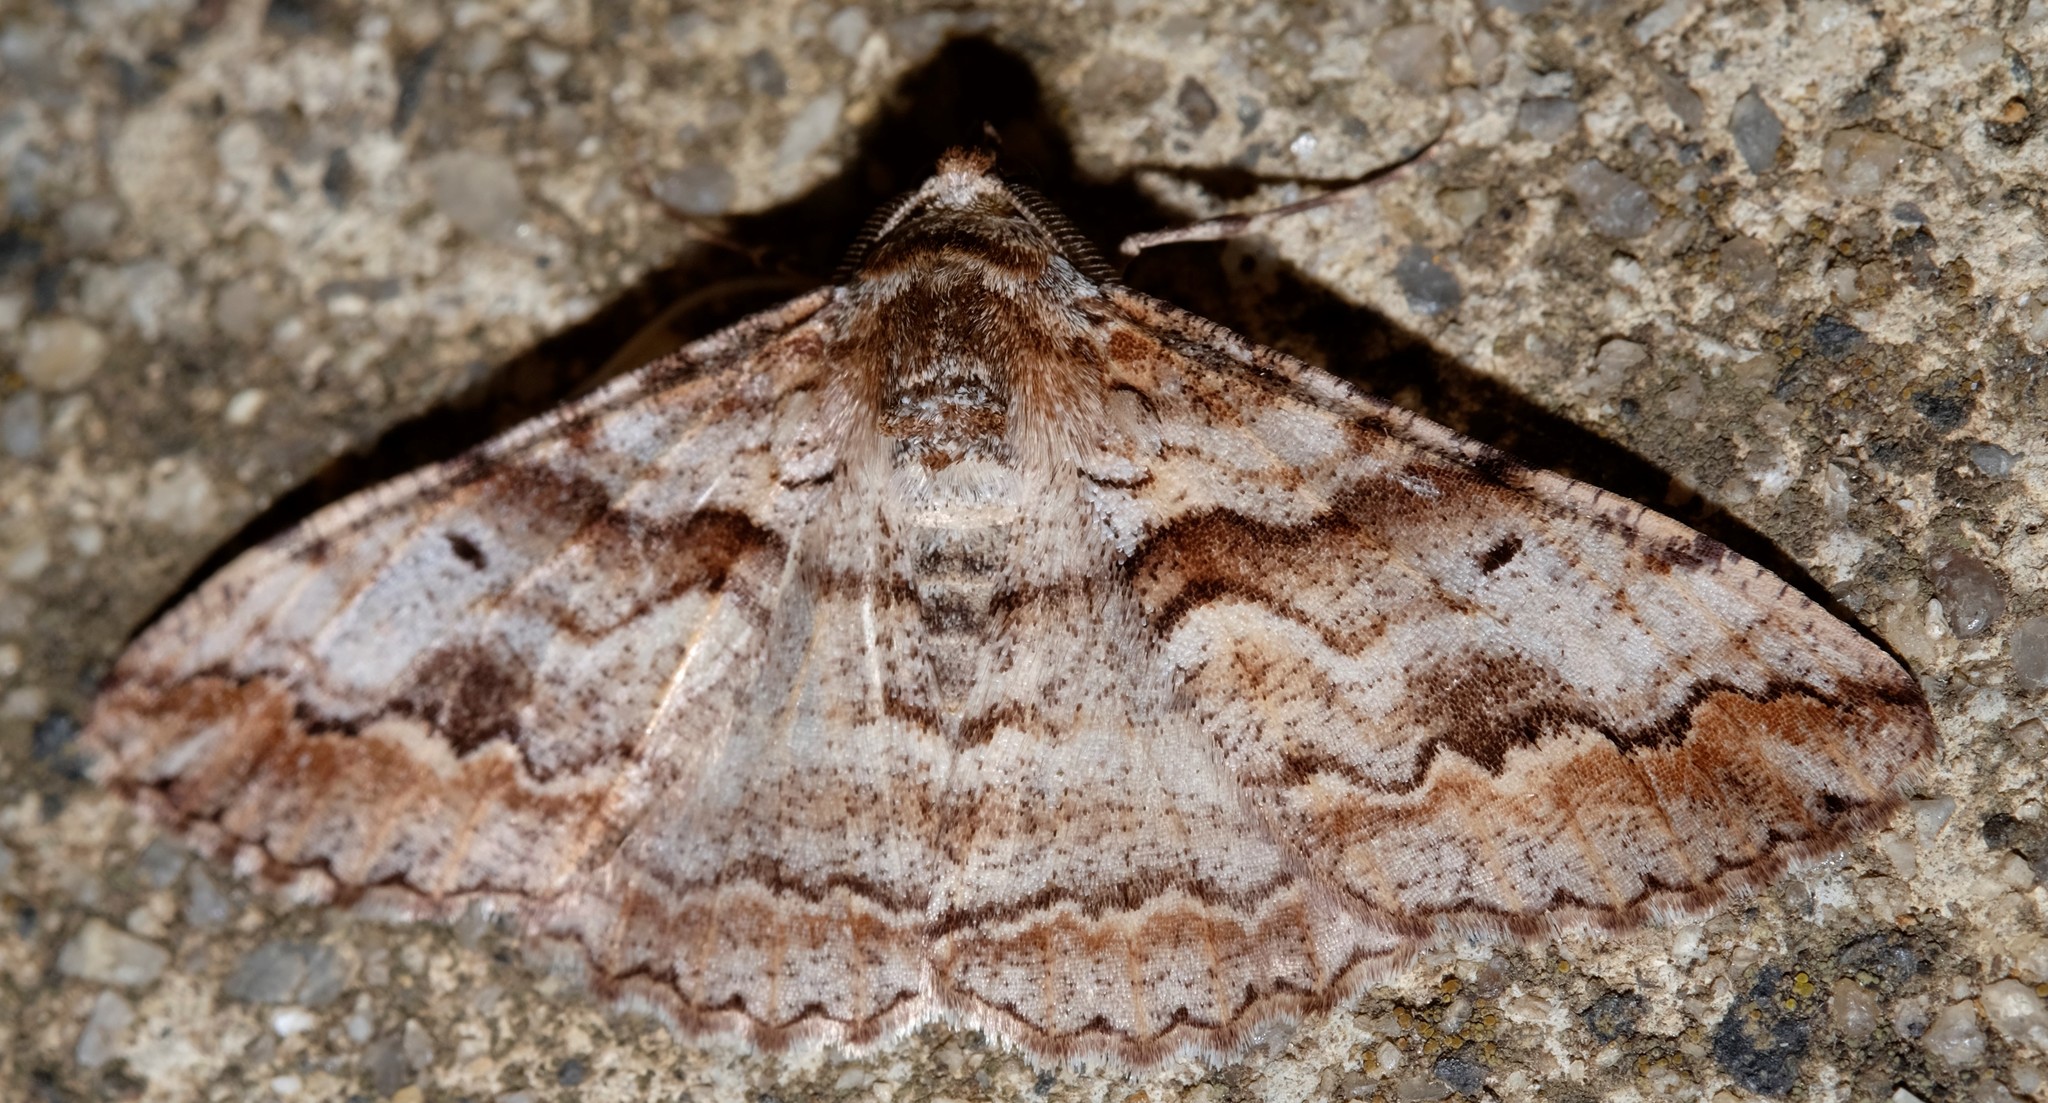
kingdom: Animalia
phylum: Arthropoda
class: Insecta
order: Lepidoptera
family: Geometridae
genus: Gastrinodes
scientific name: Gastrinodes bitaeniaria
